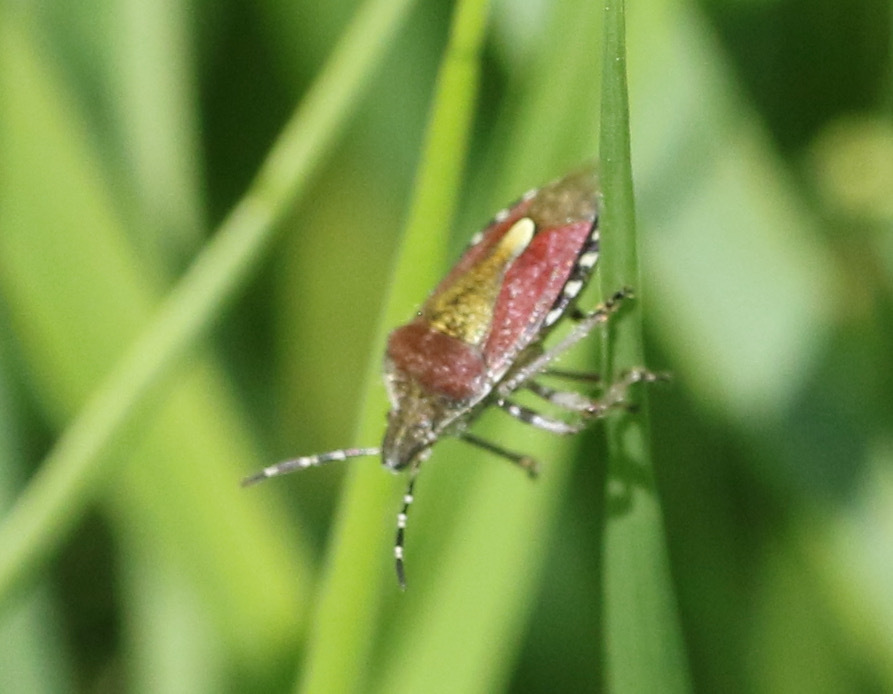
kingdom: Animalia
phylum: Arthropoda
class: Insecta
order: Hemiptera
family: Pentatomidae
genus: Dolycoris
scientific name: Dolycoris baccarum
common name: Sloe bug
